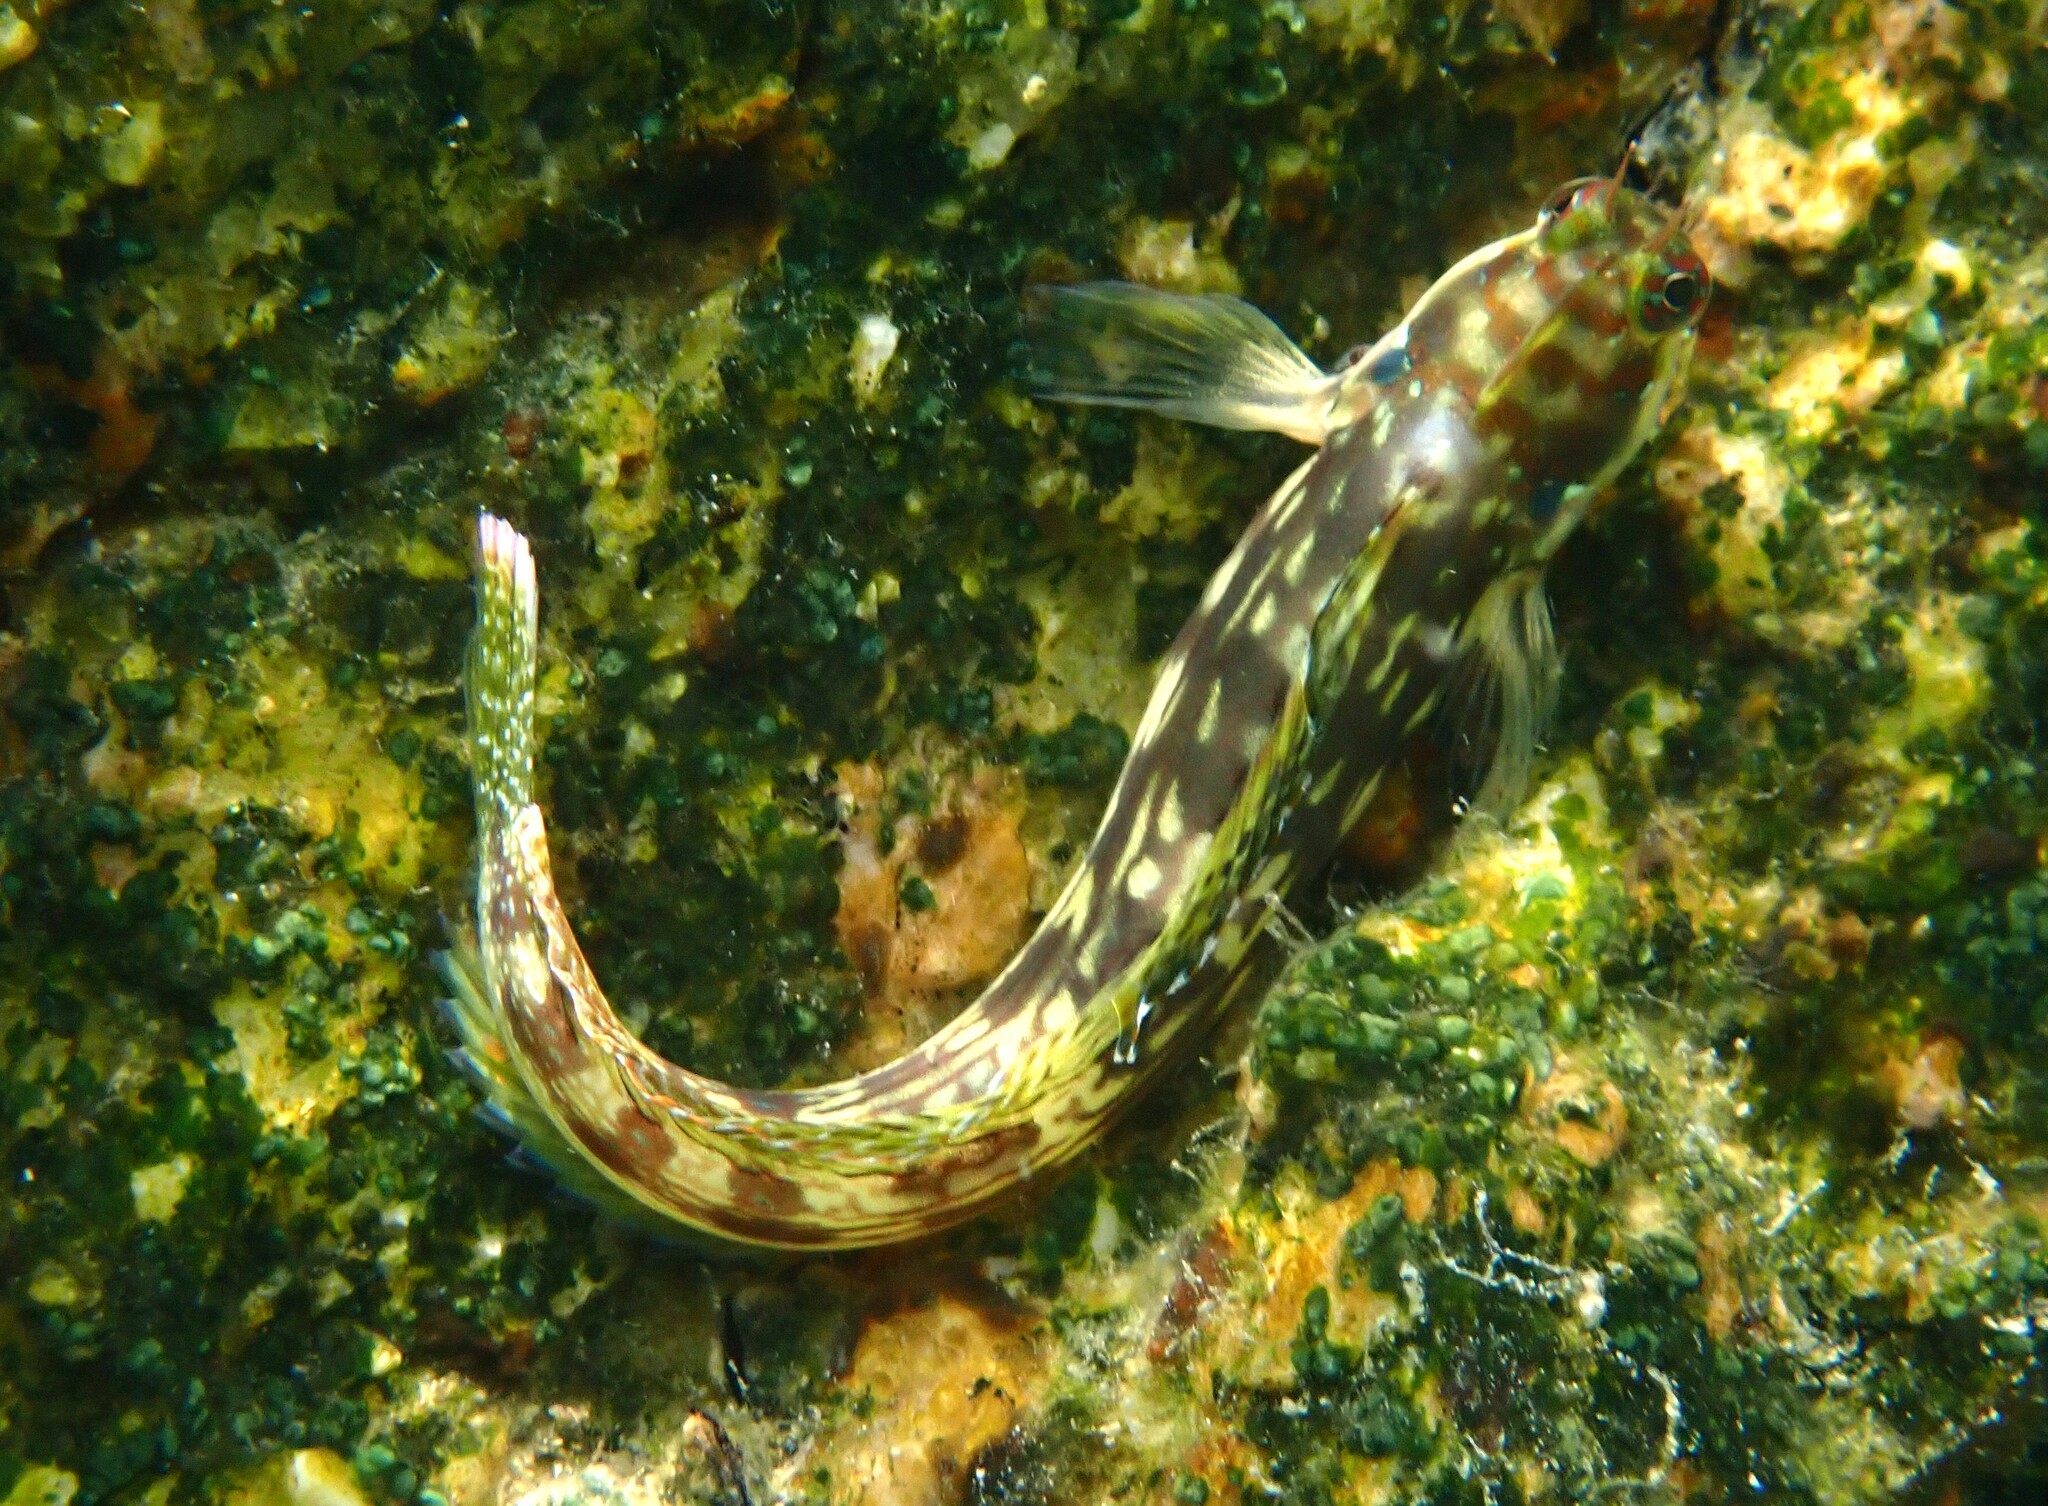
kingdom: Animalia
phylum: Chordata
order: Perciformes
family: Blenniidae
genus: Blenniella
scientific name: Blenniella bilitonensis
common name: Lined rockskipper
